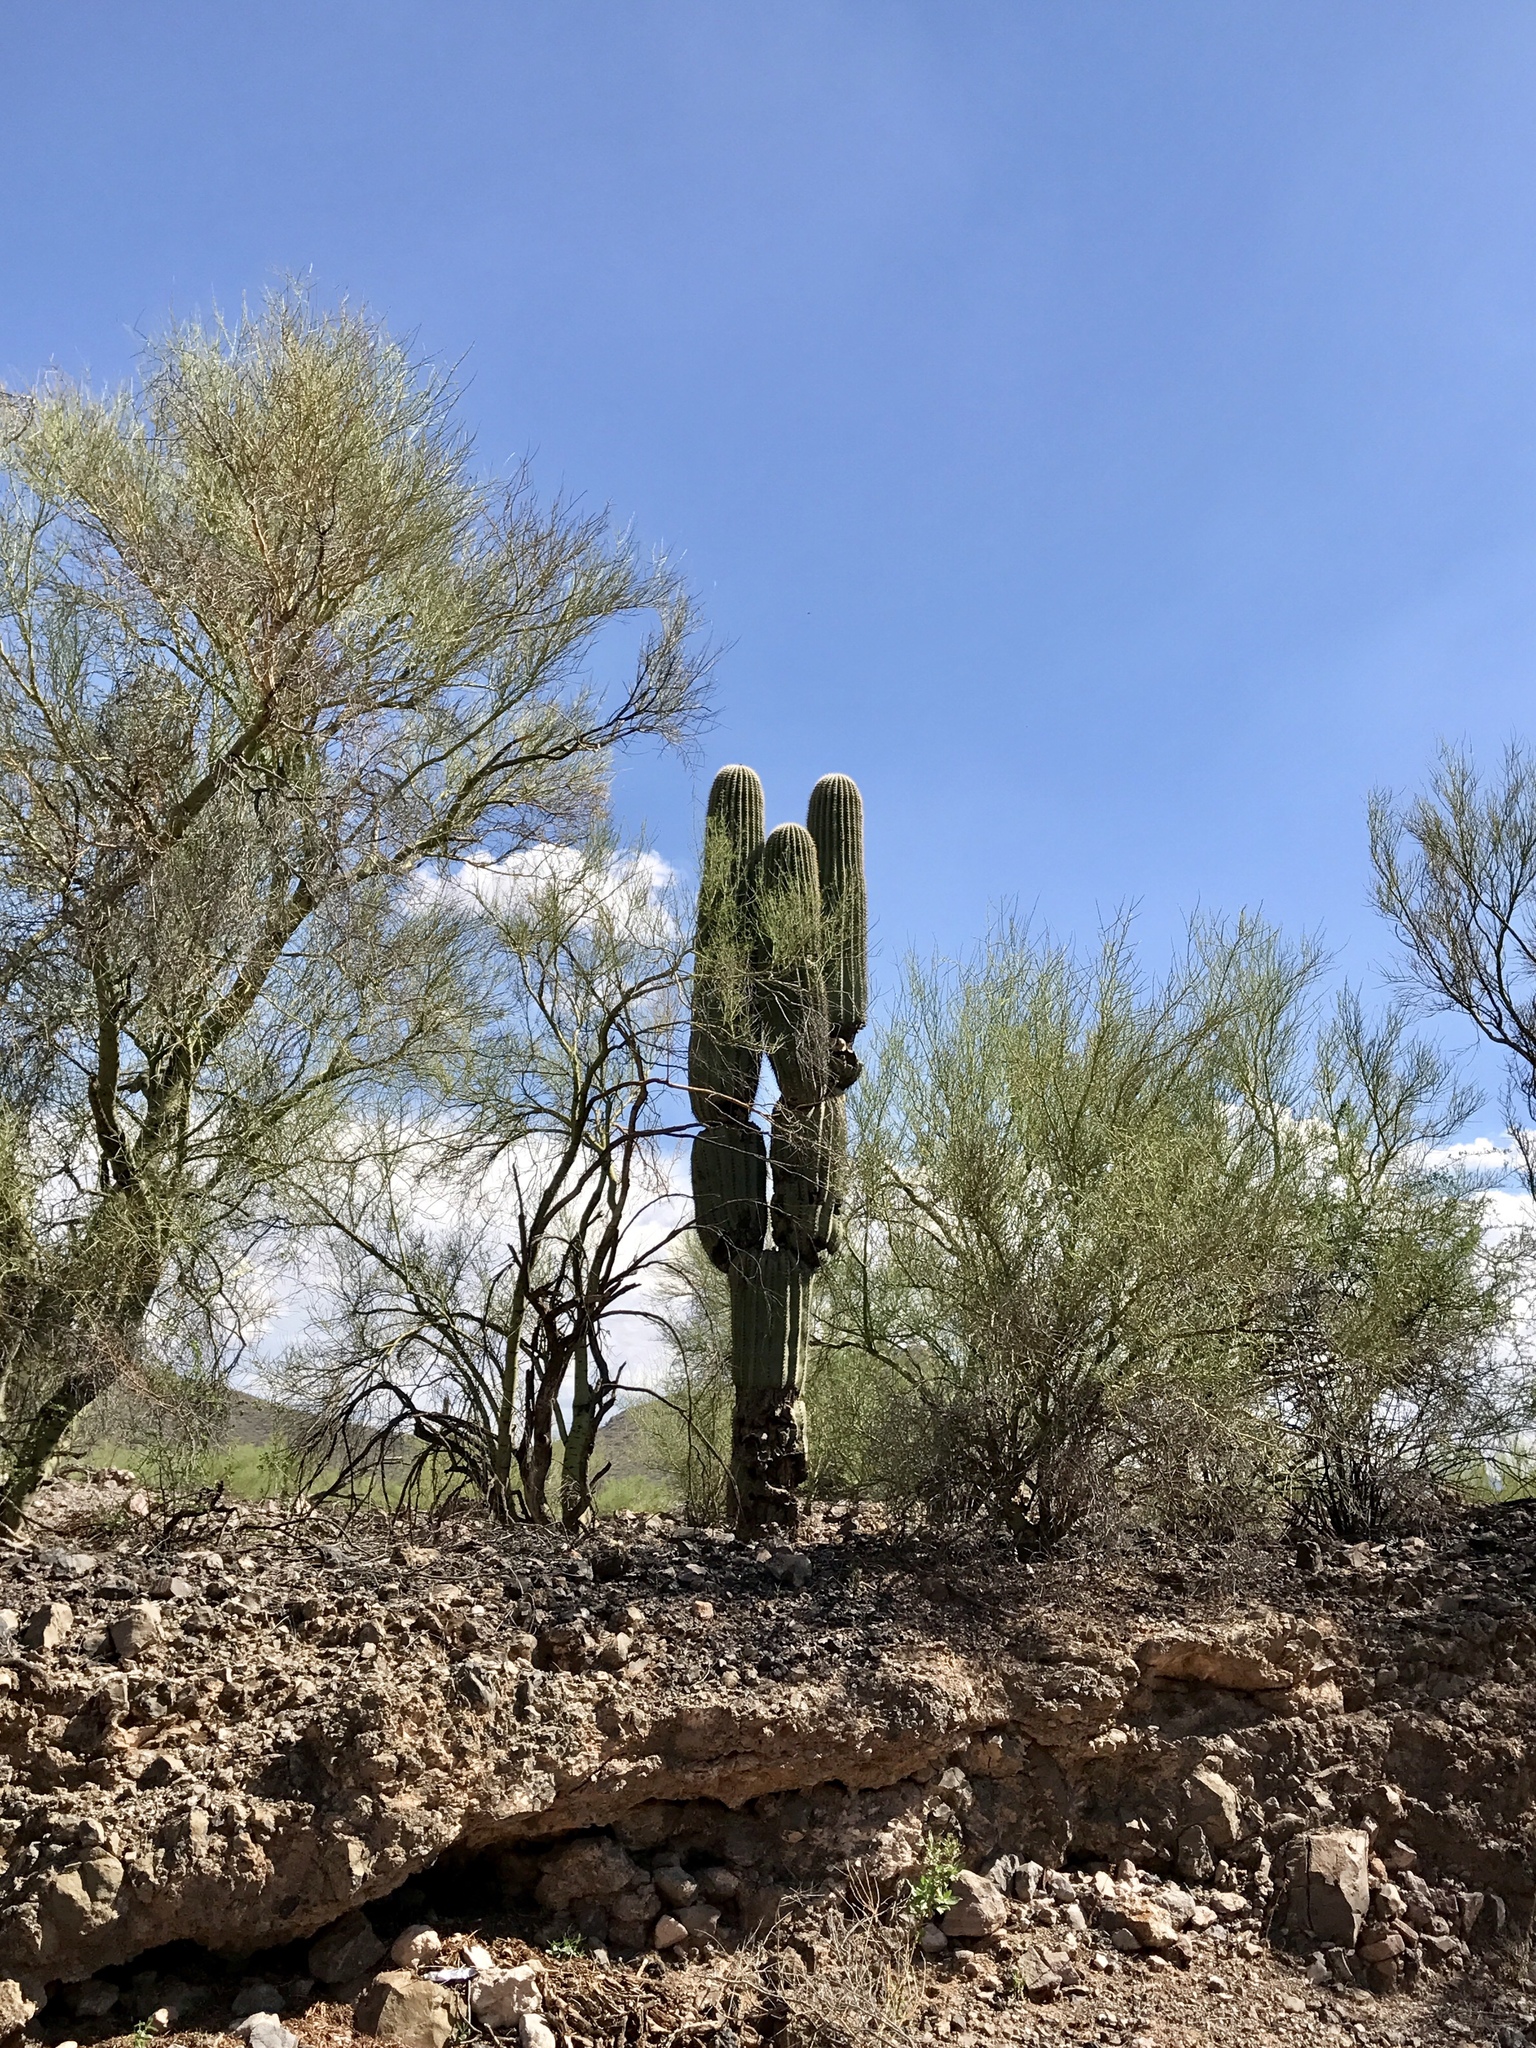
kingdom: Plantae
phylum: Tracheophyta
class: Magnoliopsida
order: Caryophyllales
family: Cactaceae
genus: Carnegiea
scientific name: Carnegiea gigantea
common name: Saguaro
